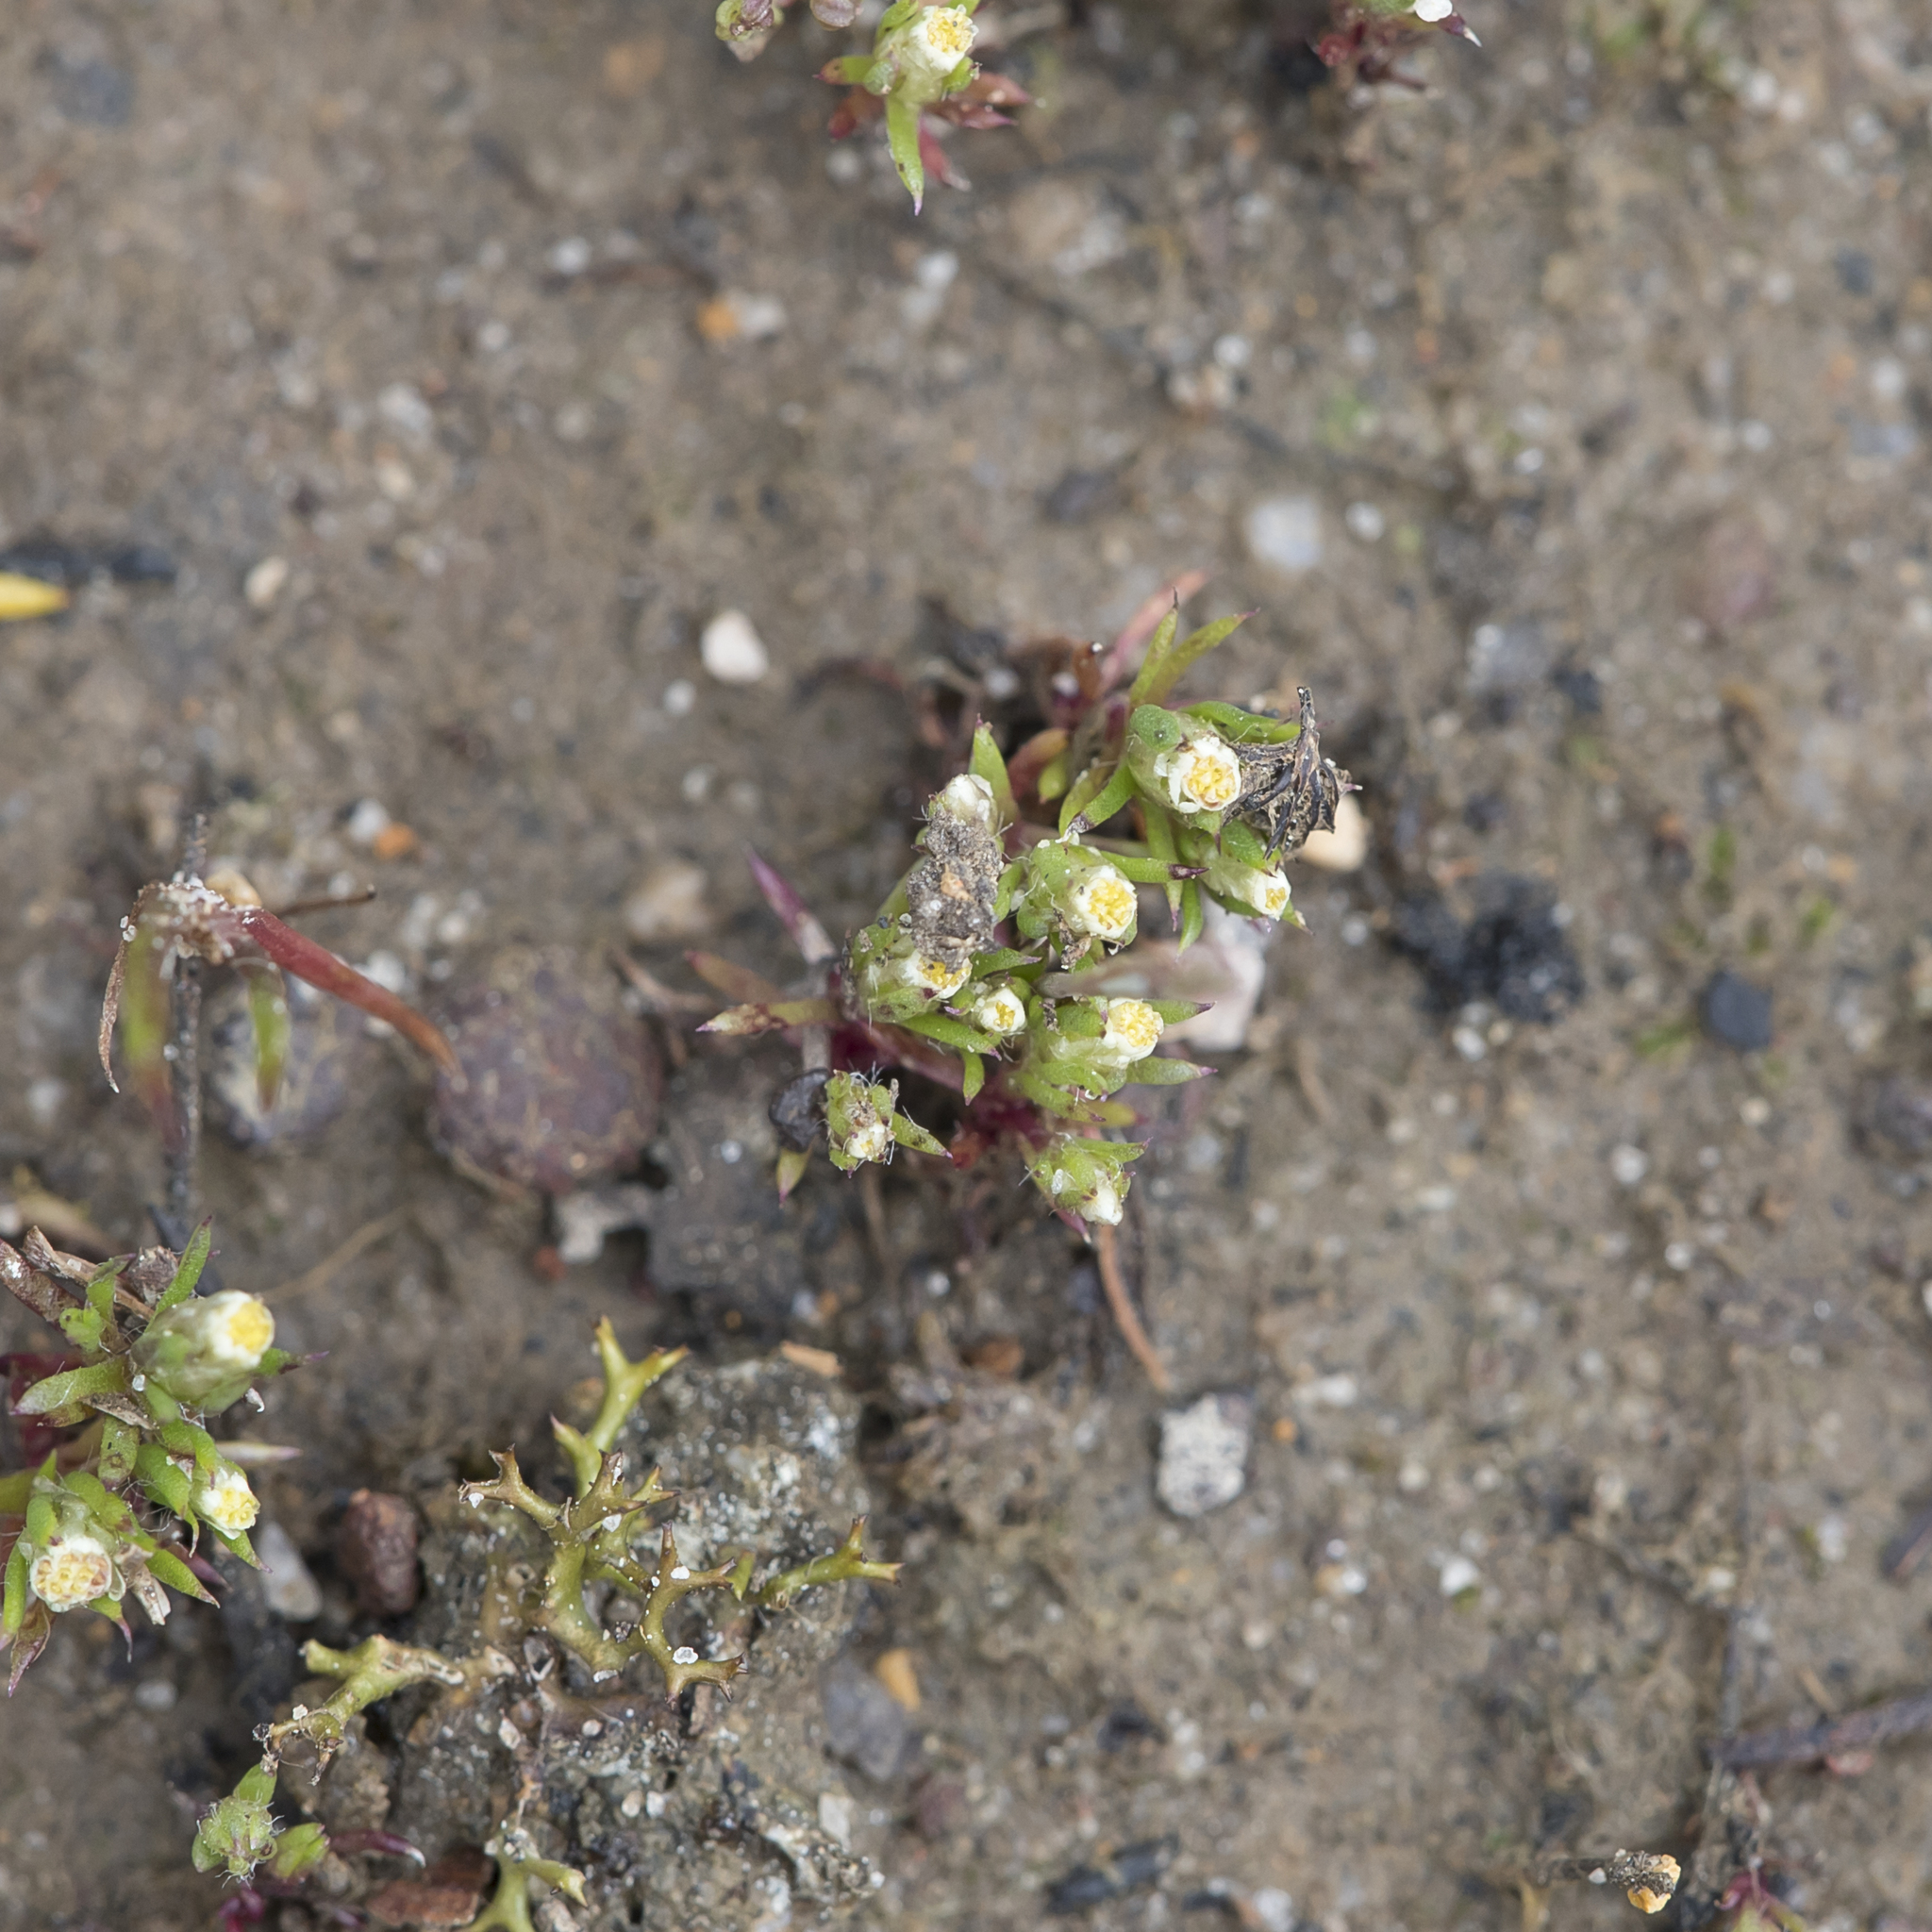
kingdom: Plantae
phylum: Tracheophyta
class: Magnoliopsida
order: Asterales
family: Asteraceae
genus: Hyalosperma
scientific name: Hyalosperma demissum
